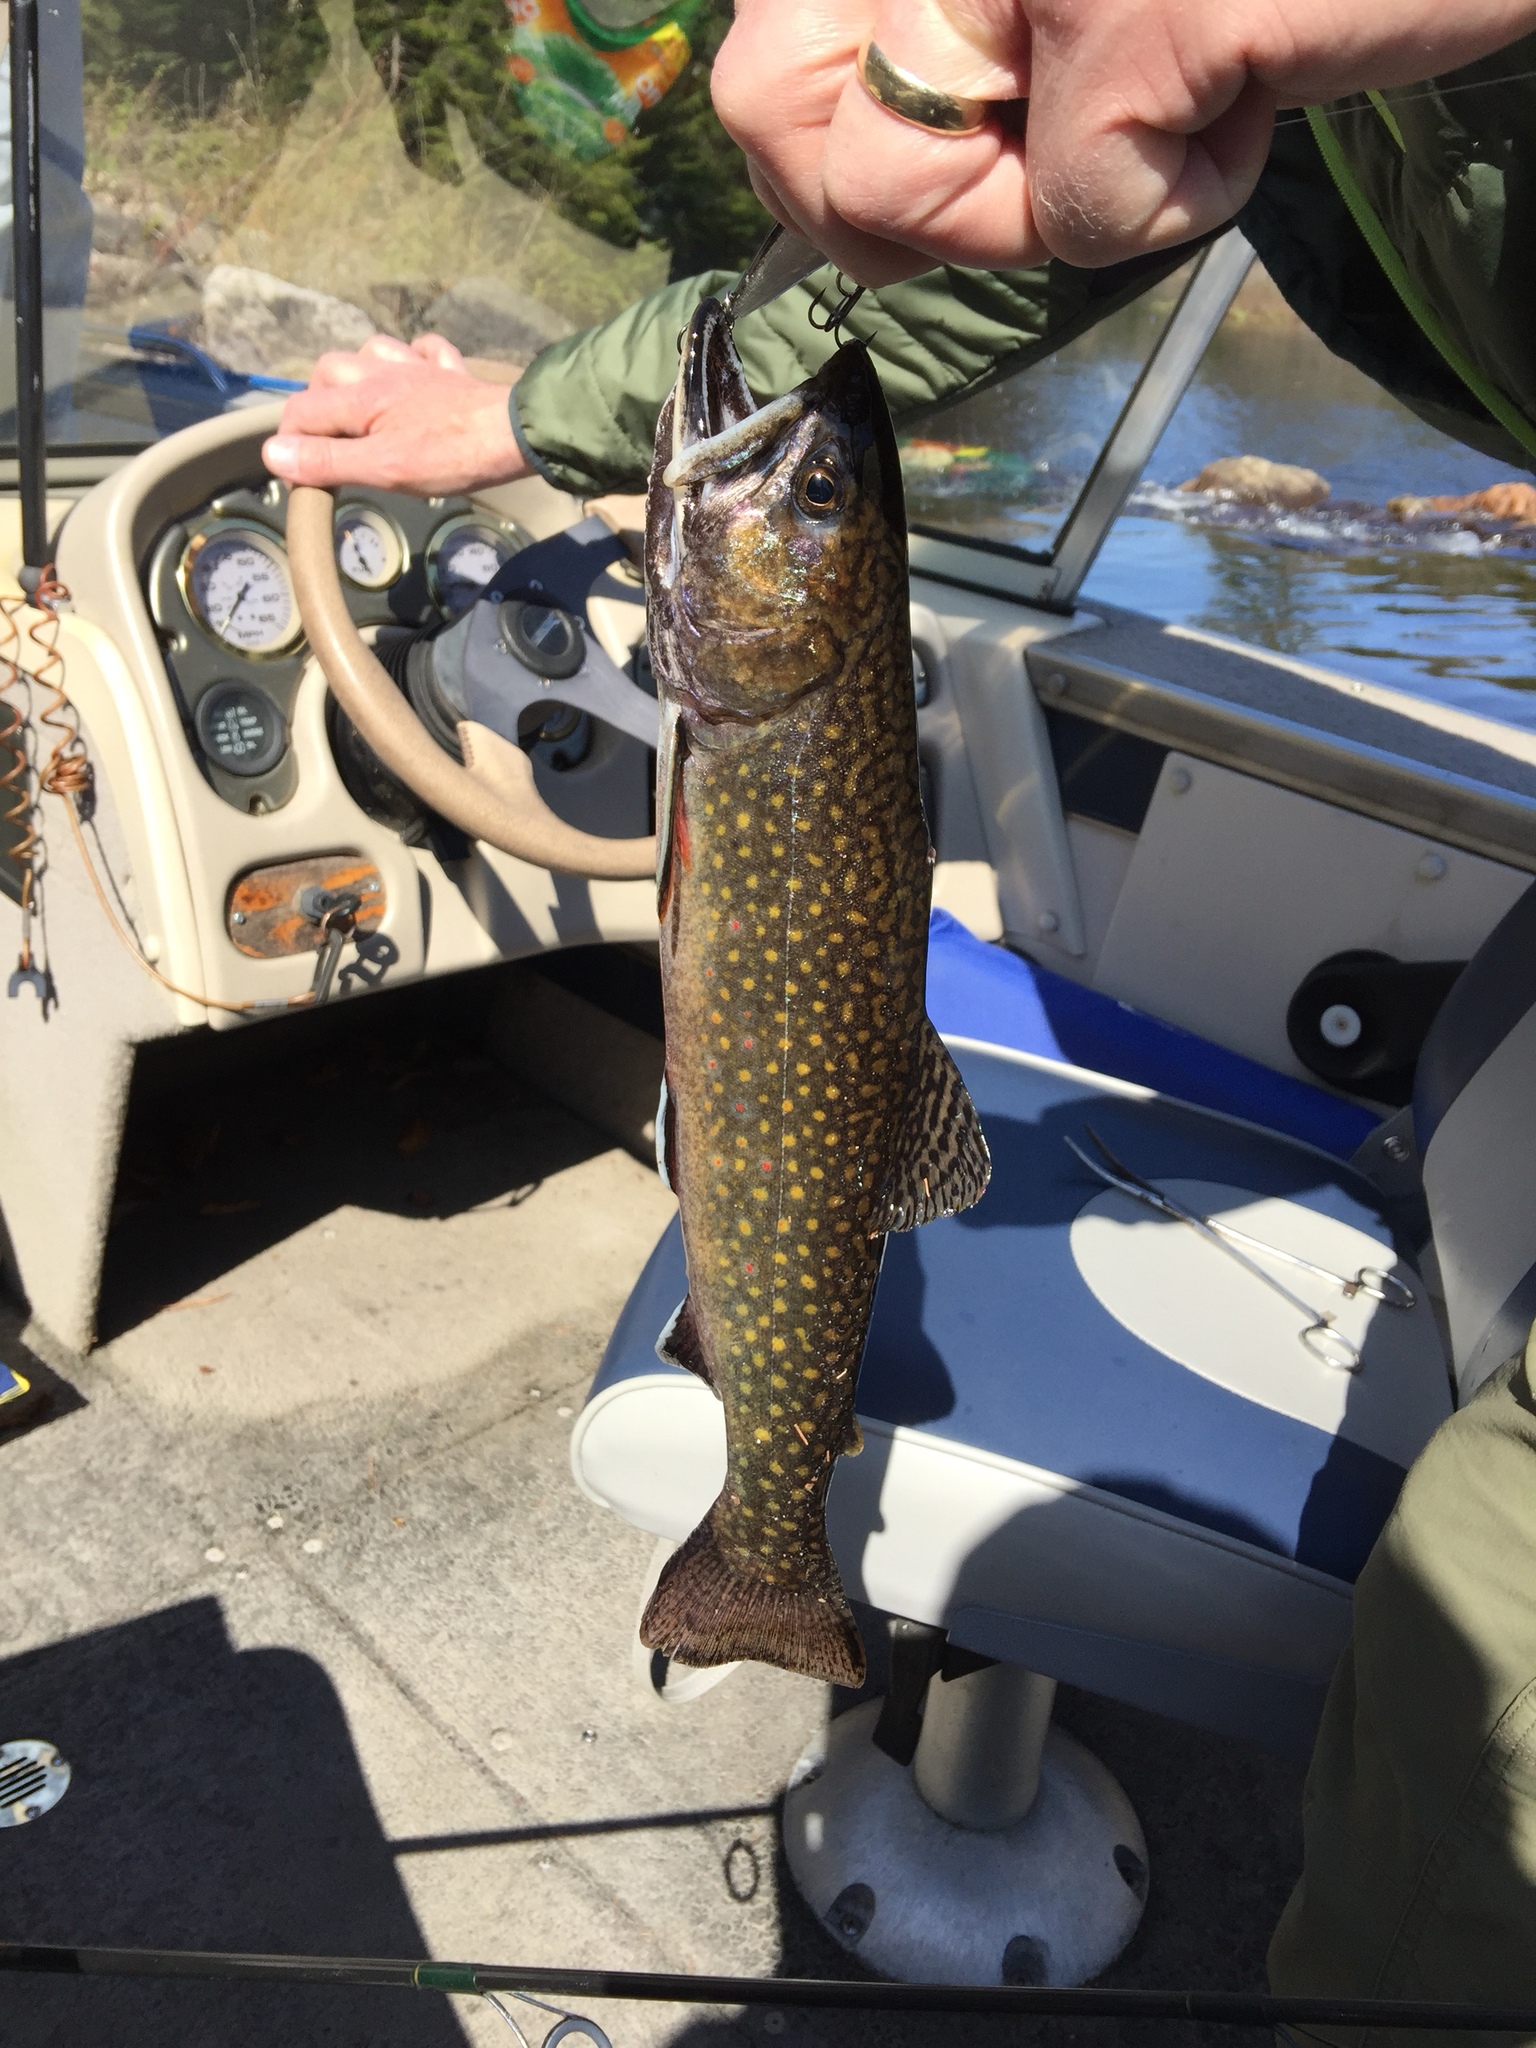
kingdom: Animalia
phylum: Chordata
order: Salmoniformes
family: Salmonidae
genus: Salvelinus
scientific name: Salvelinus fontinalis
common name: Brook trout
